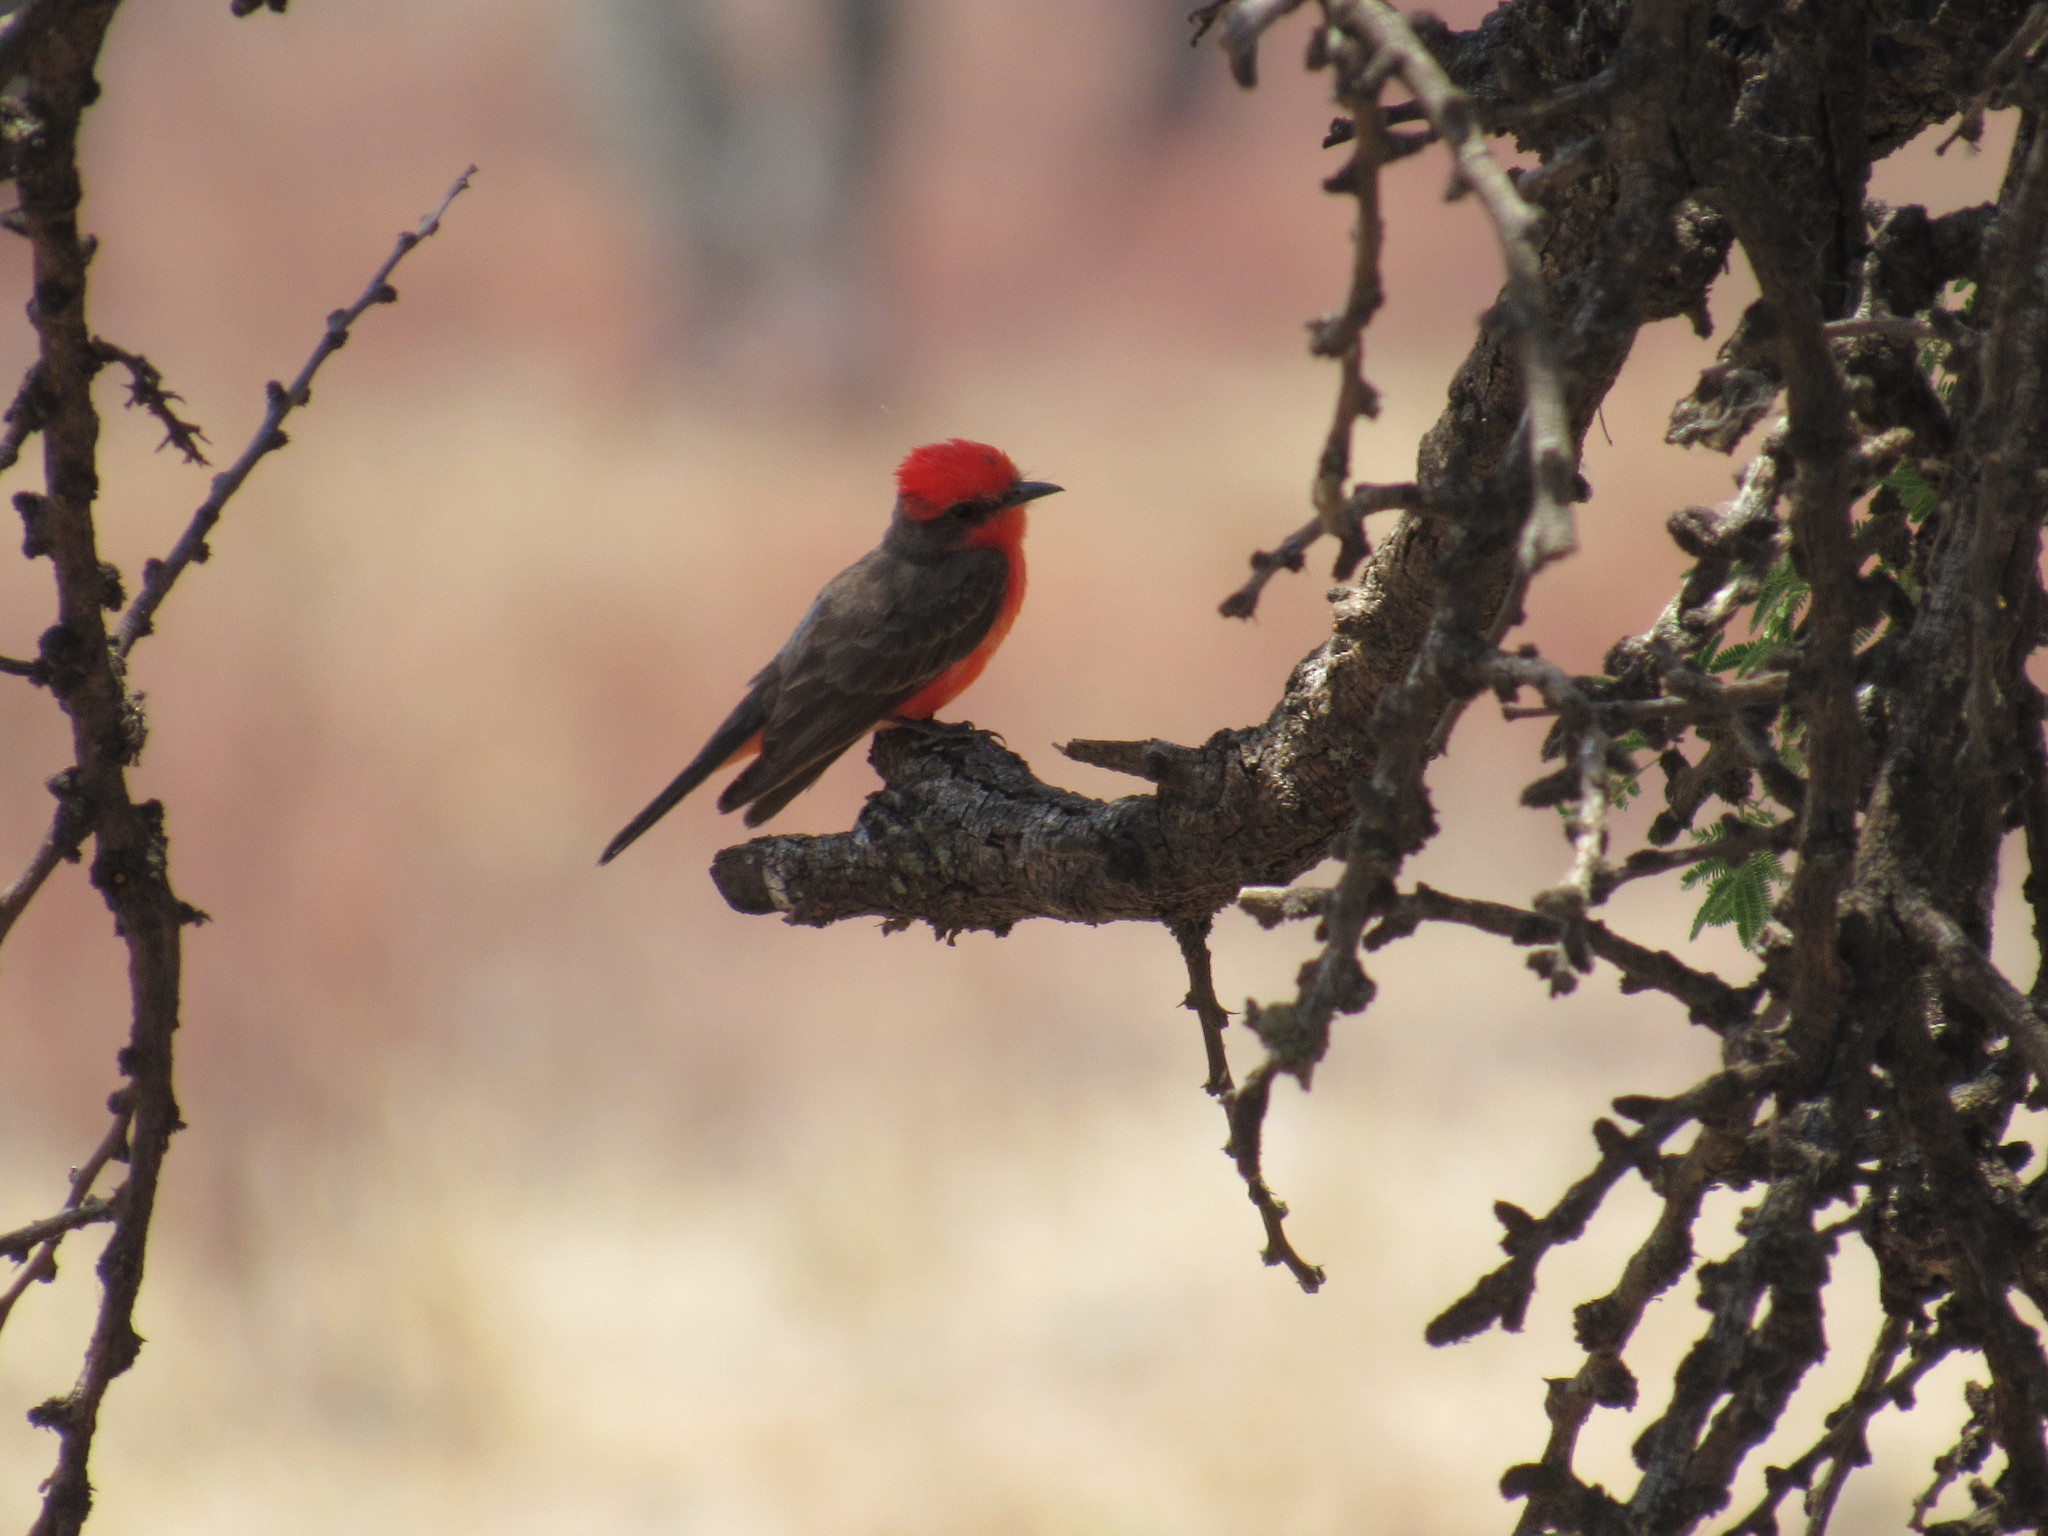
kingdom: Animalia
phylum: Chordata
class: Aves
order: Passeriformes
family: Tyrannidae
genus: Pyrocephalus
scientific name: Pyrocephalus rubinus
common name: Vermilion flycatcher
